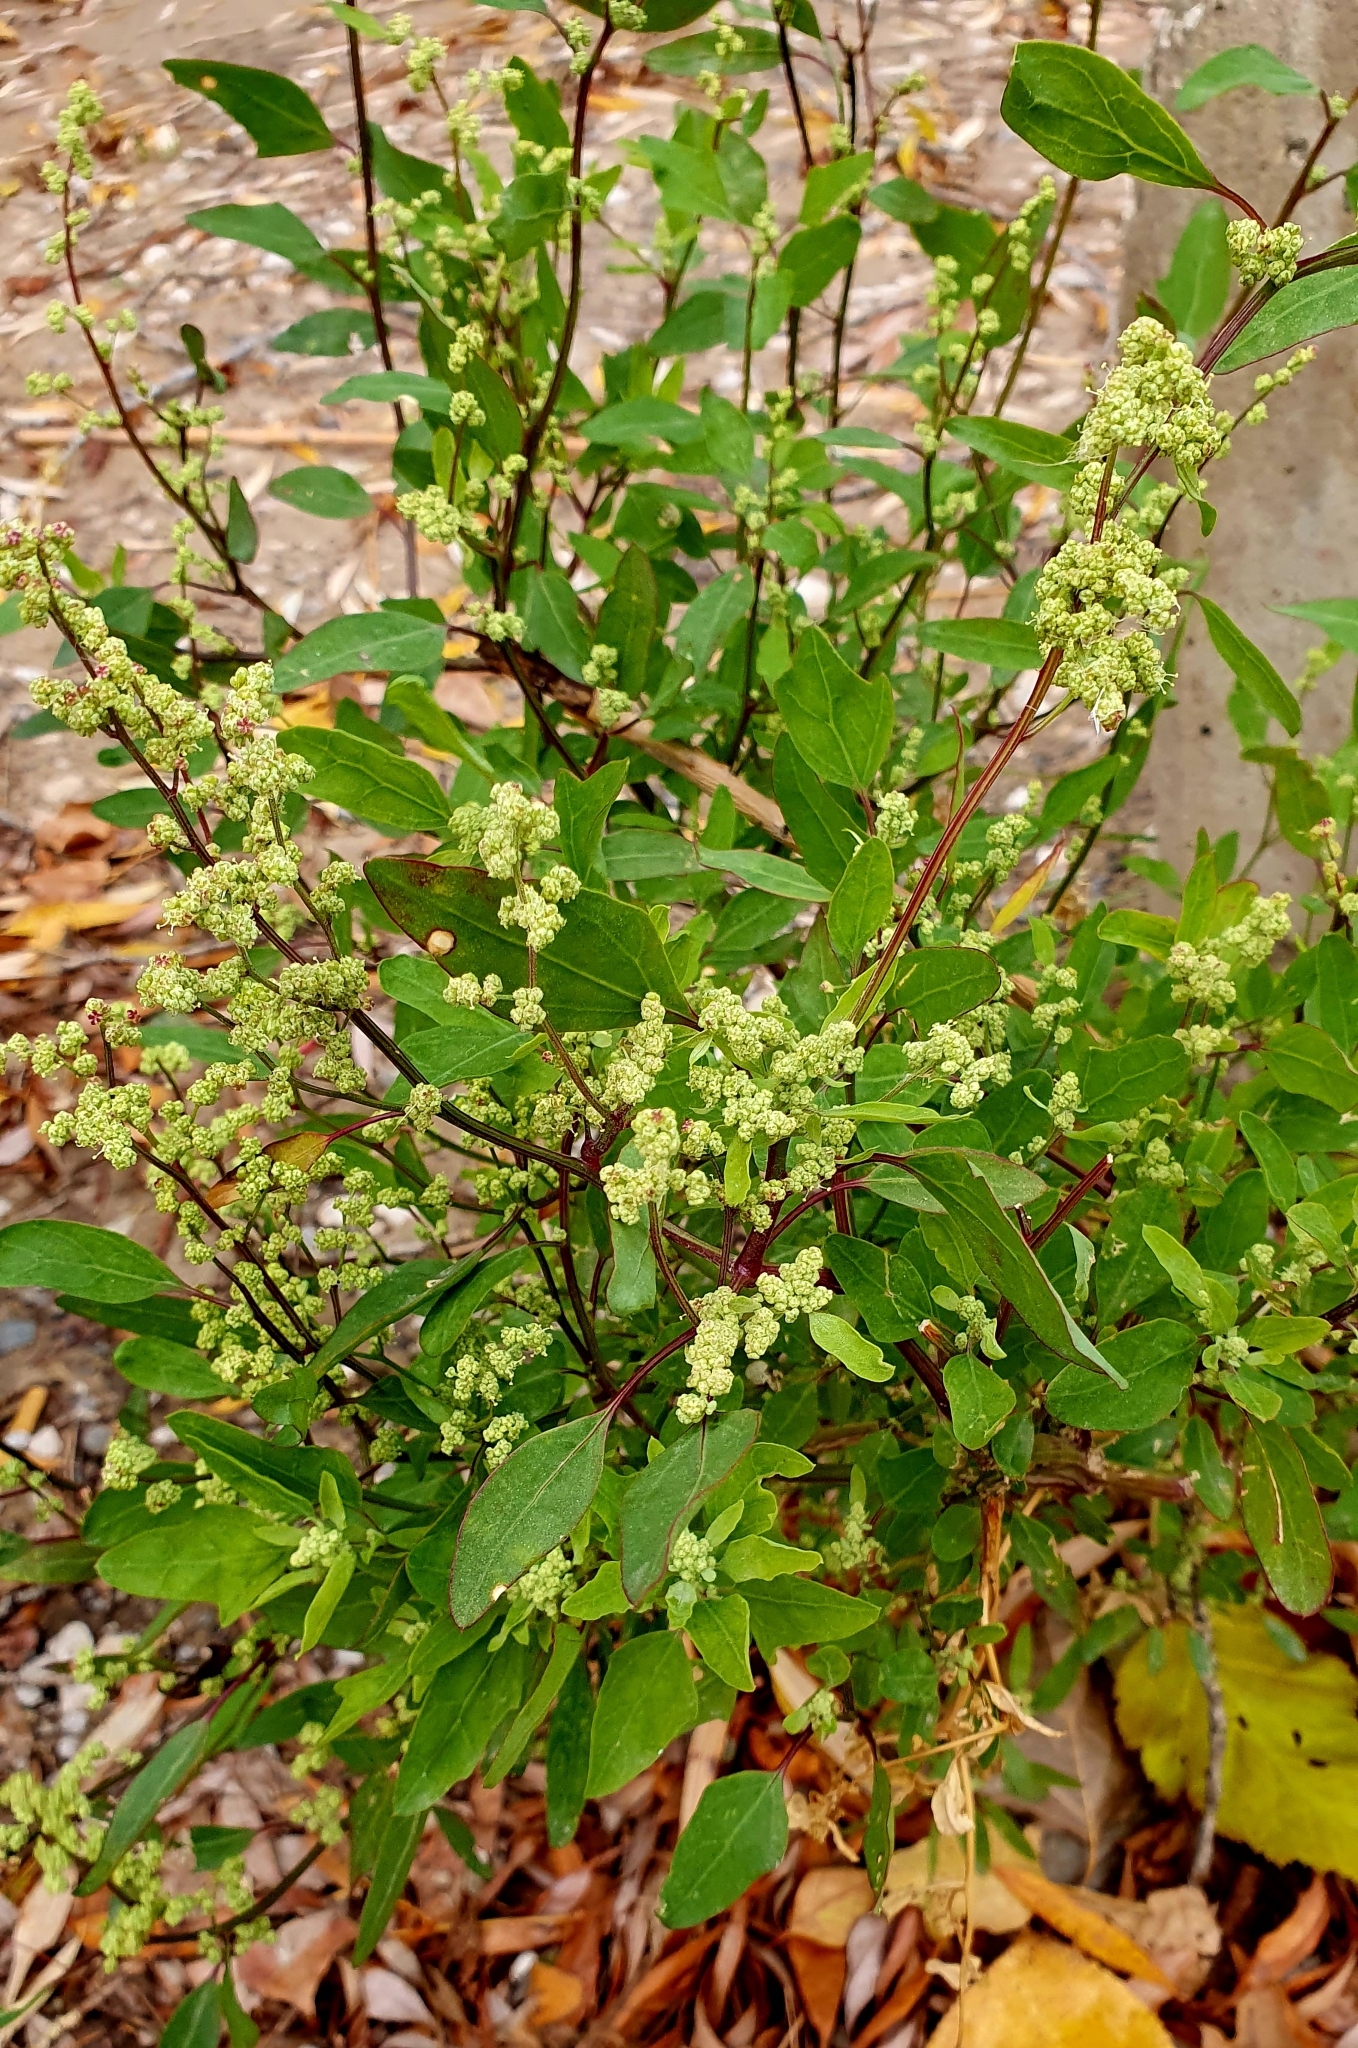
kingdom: Plantae
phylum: Tracheophyta
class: Magnoliopsida
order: Caryophyllales
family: Amaranthaceae
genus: Chenopodium
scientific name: Chenopodium betaceum
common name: Striped goosefoot
